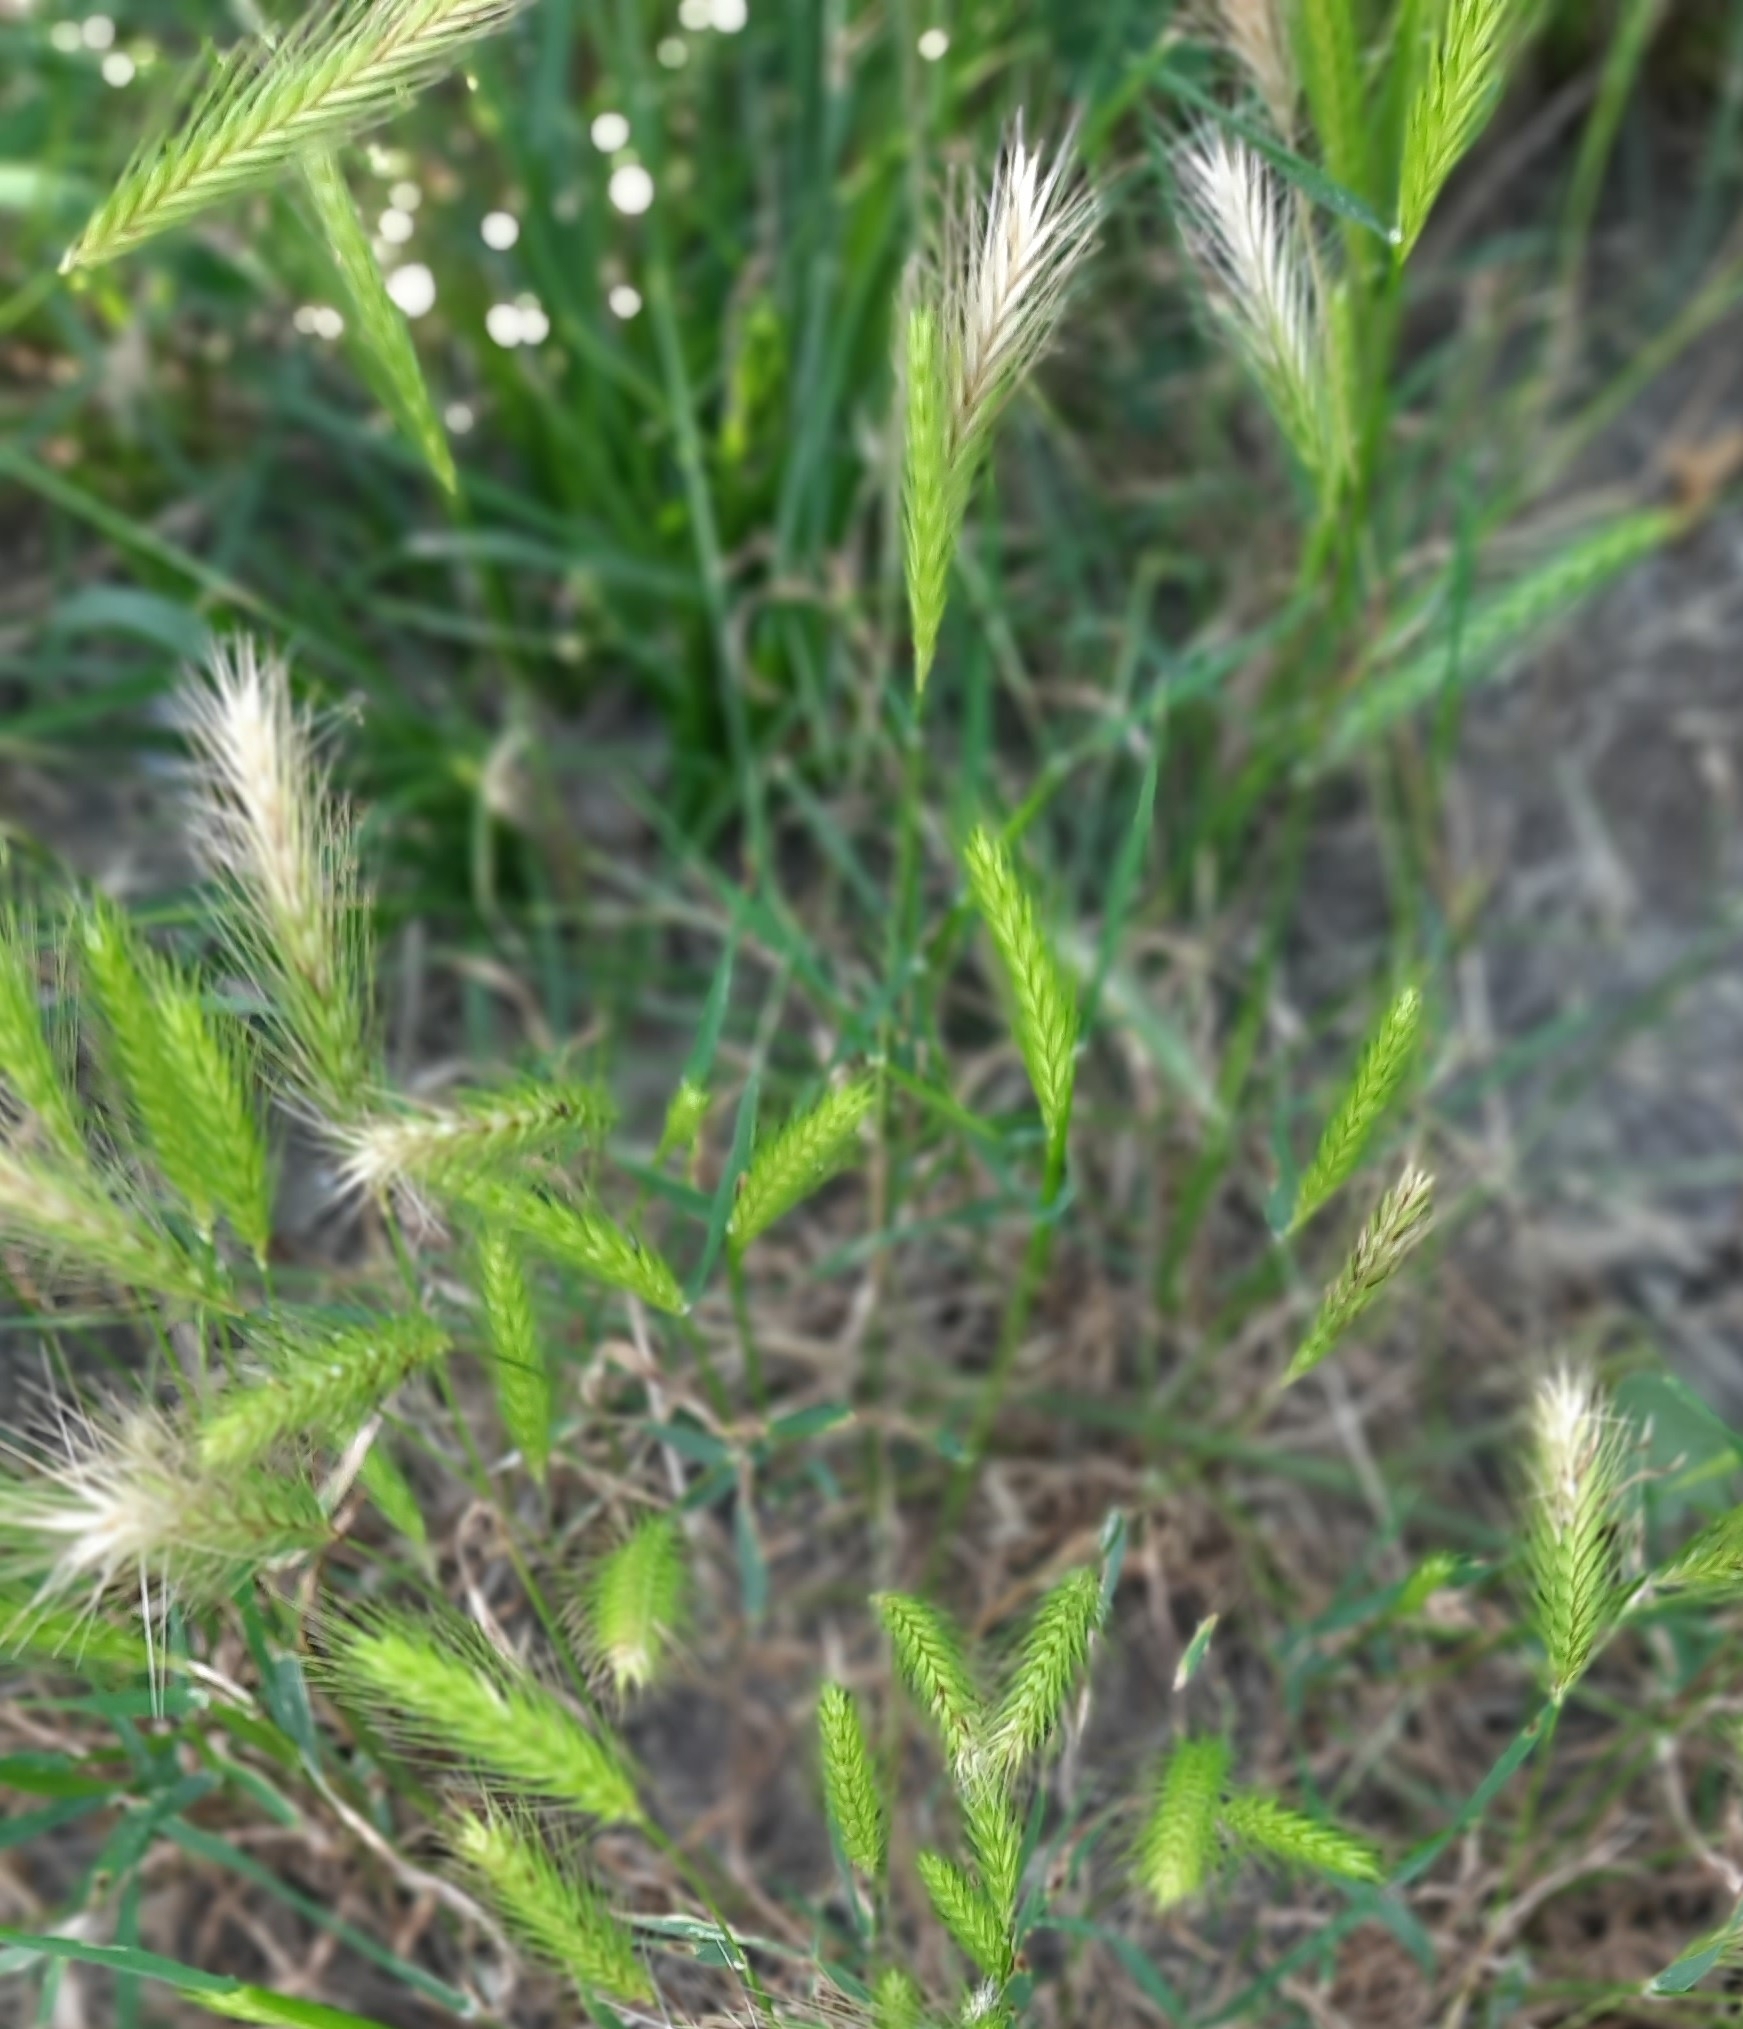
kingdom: Plantae
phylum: Tracheophyta
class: Liliopsida
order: Poales
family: Poaceae
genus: Hordeum
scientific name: Hordeum murinum
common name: Wall barley
